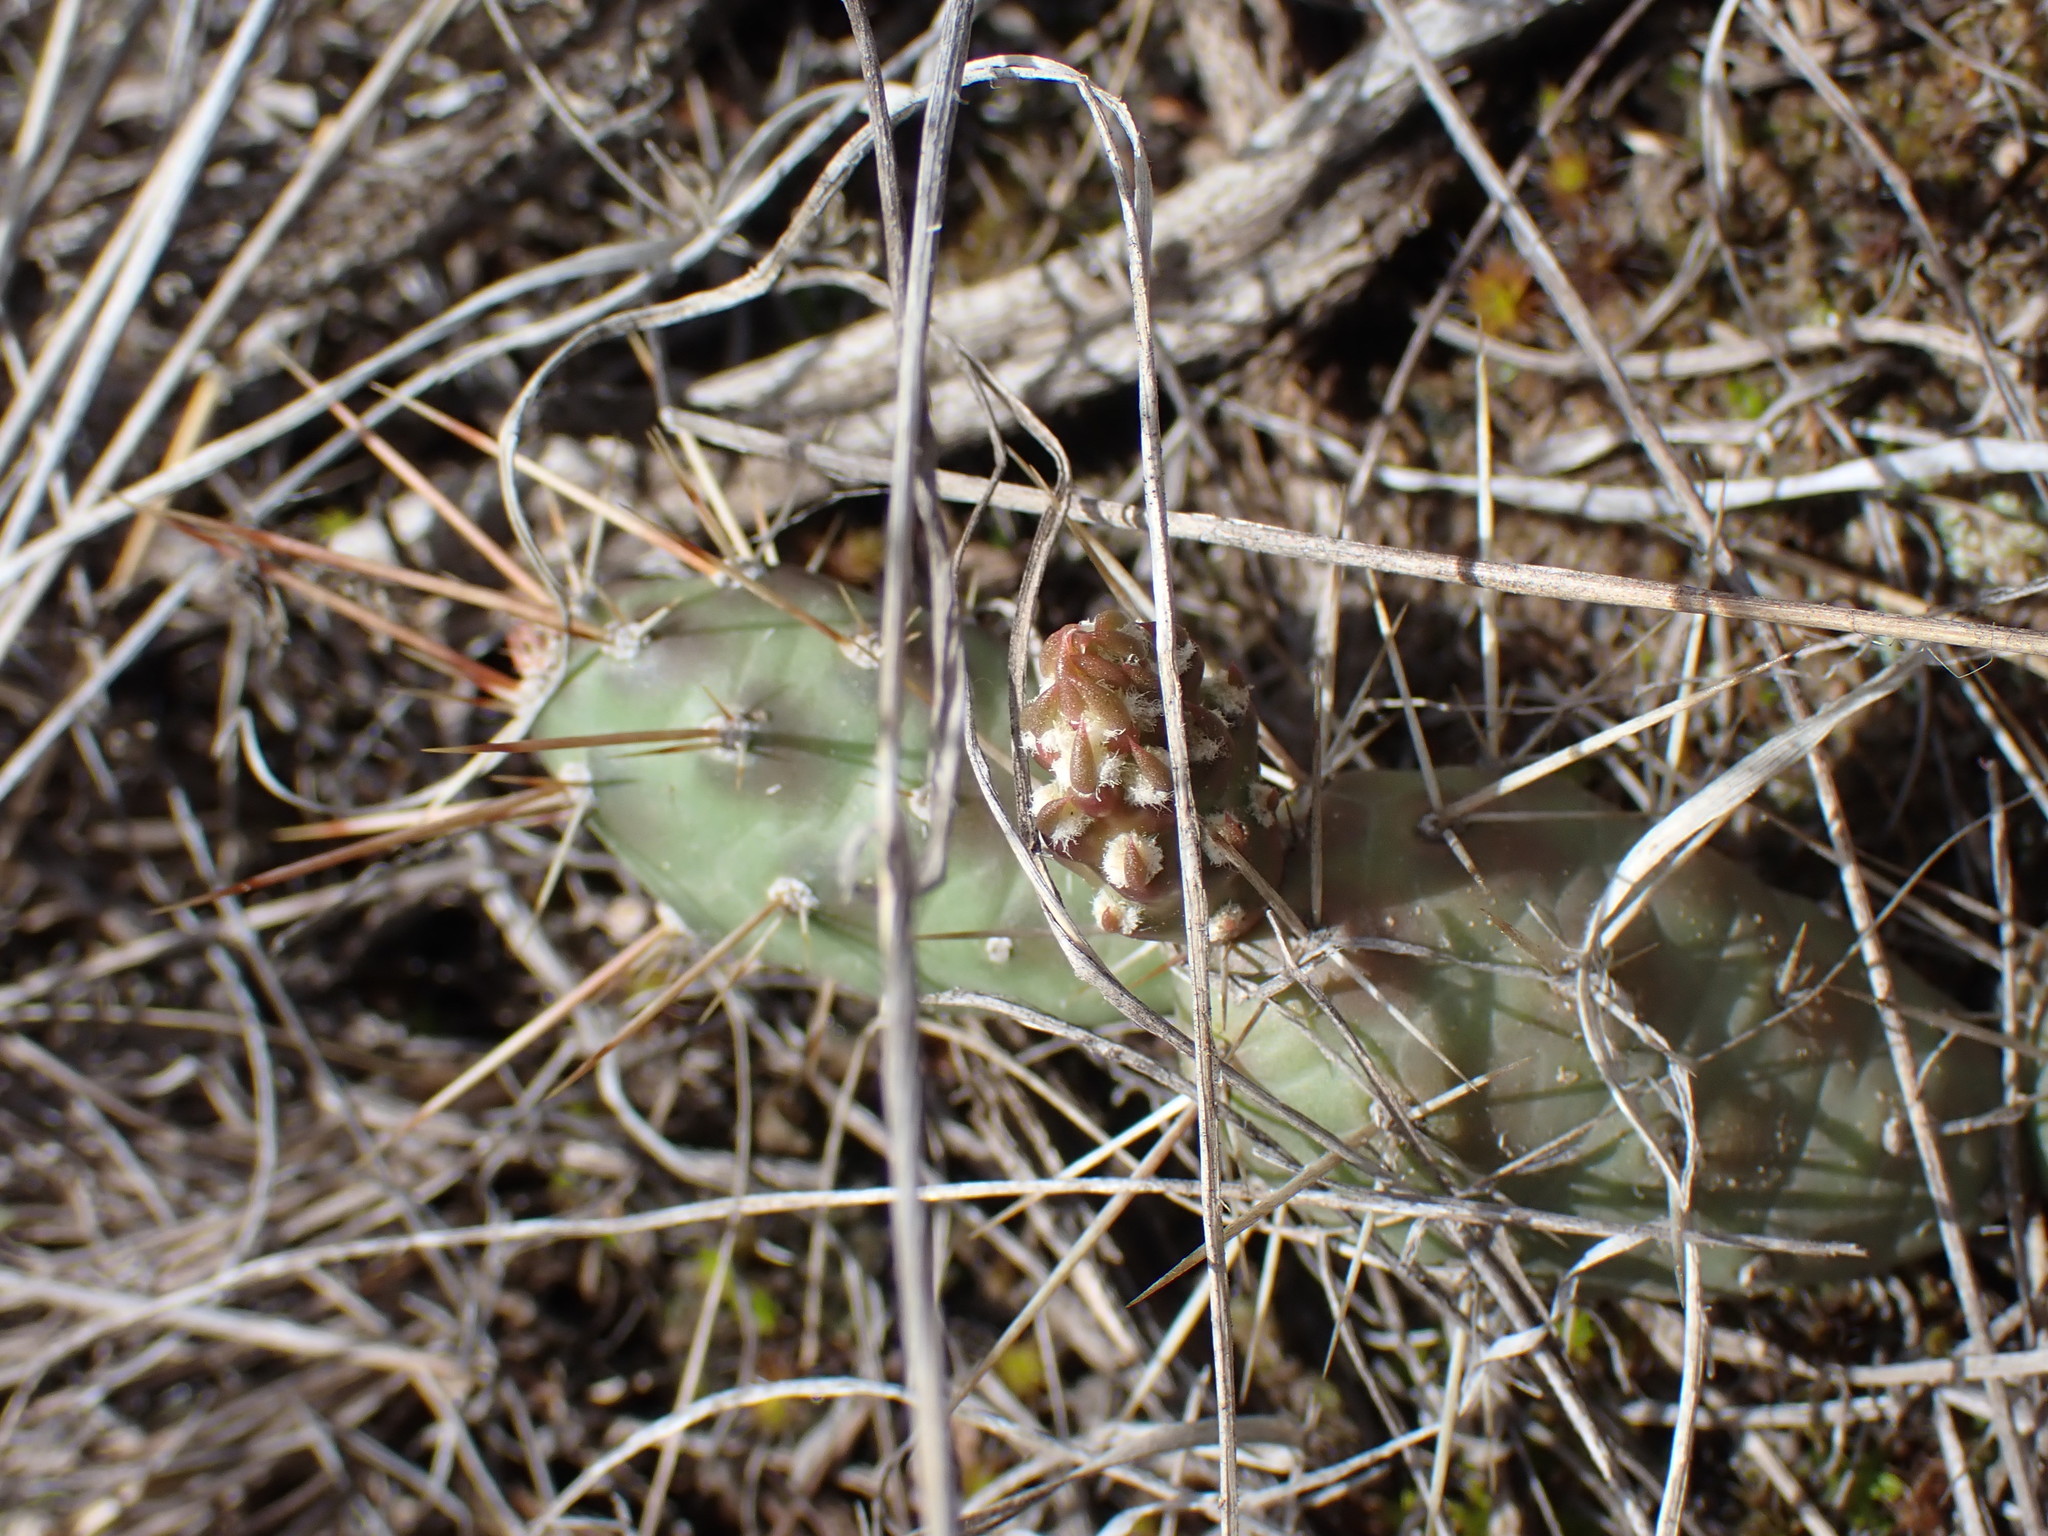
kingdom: Plantae
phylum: Tracheophyta
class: Magnoliopsida
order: Caryophyllales
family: Cactaceae
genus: Opuntia
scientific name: Opuntia fragilis
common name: Brittle cactus
